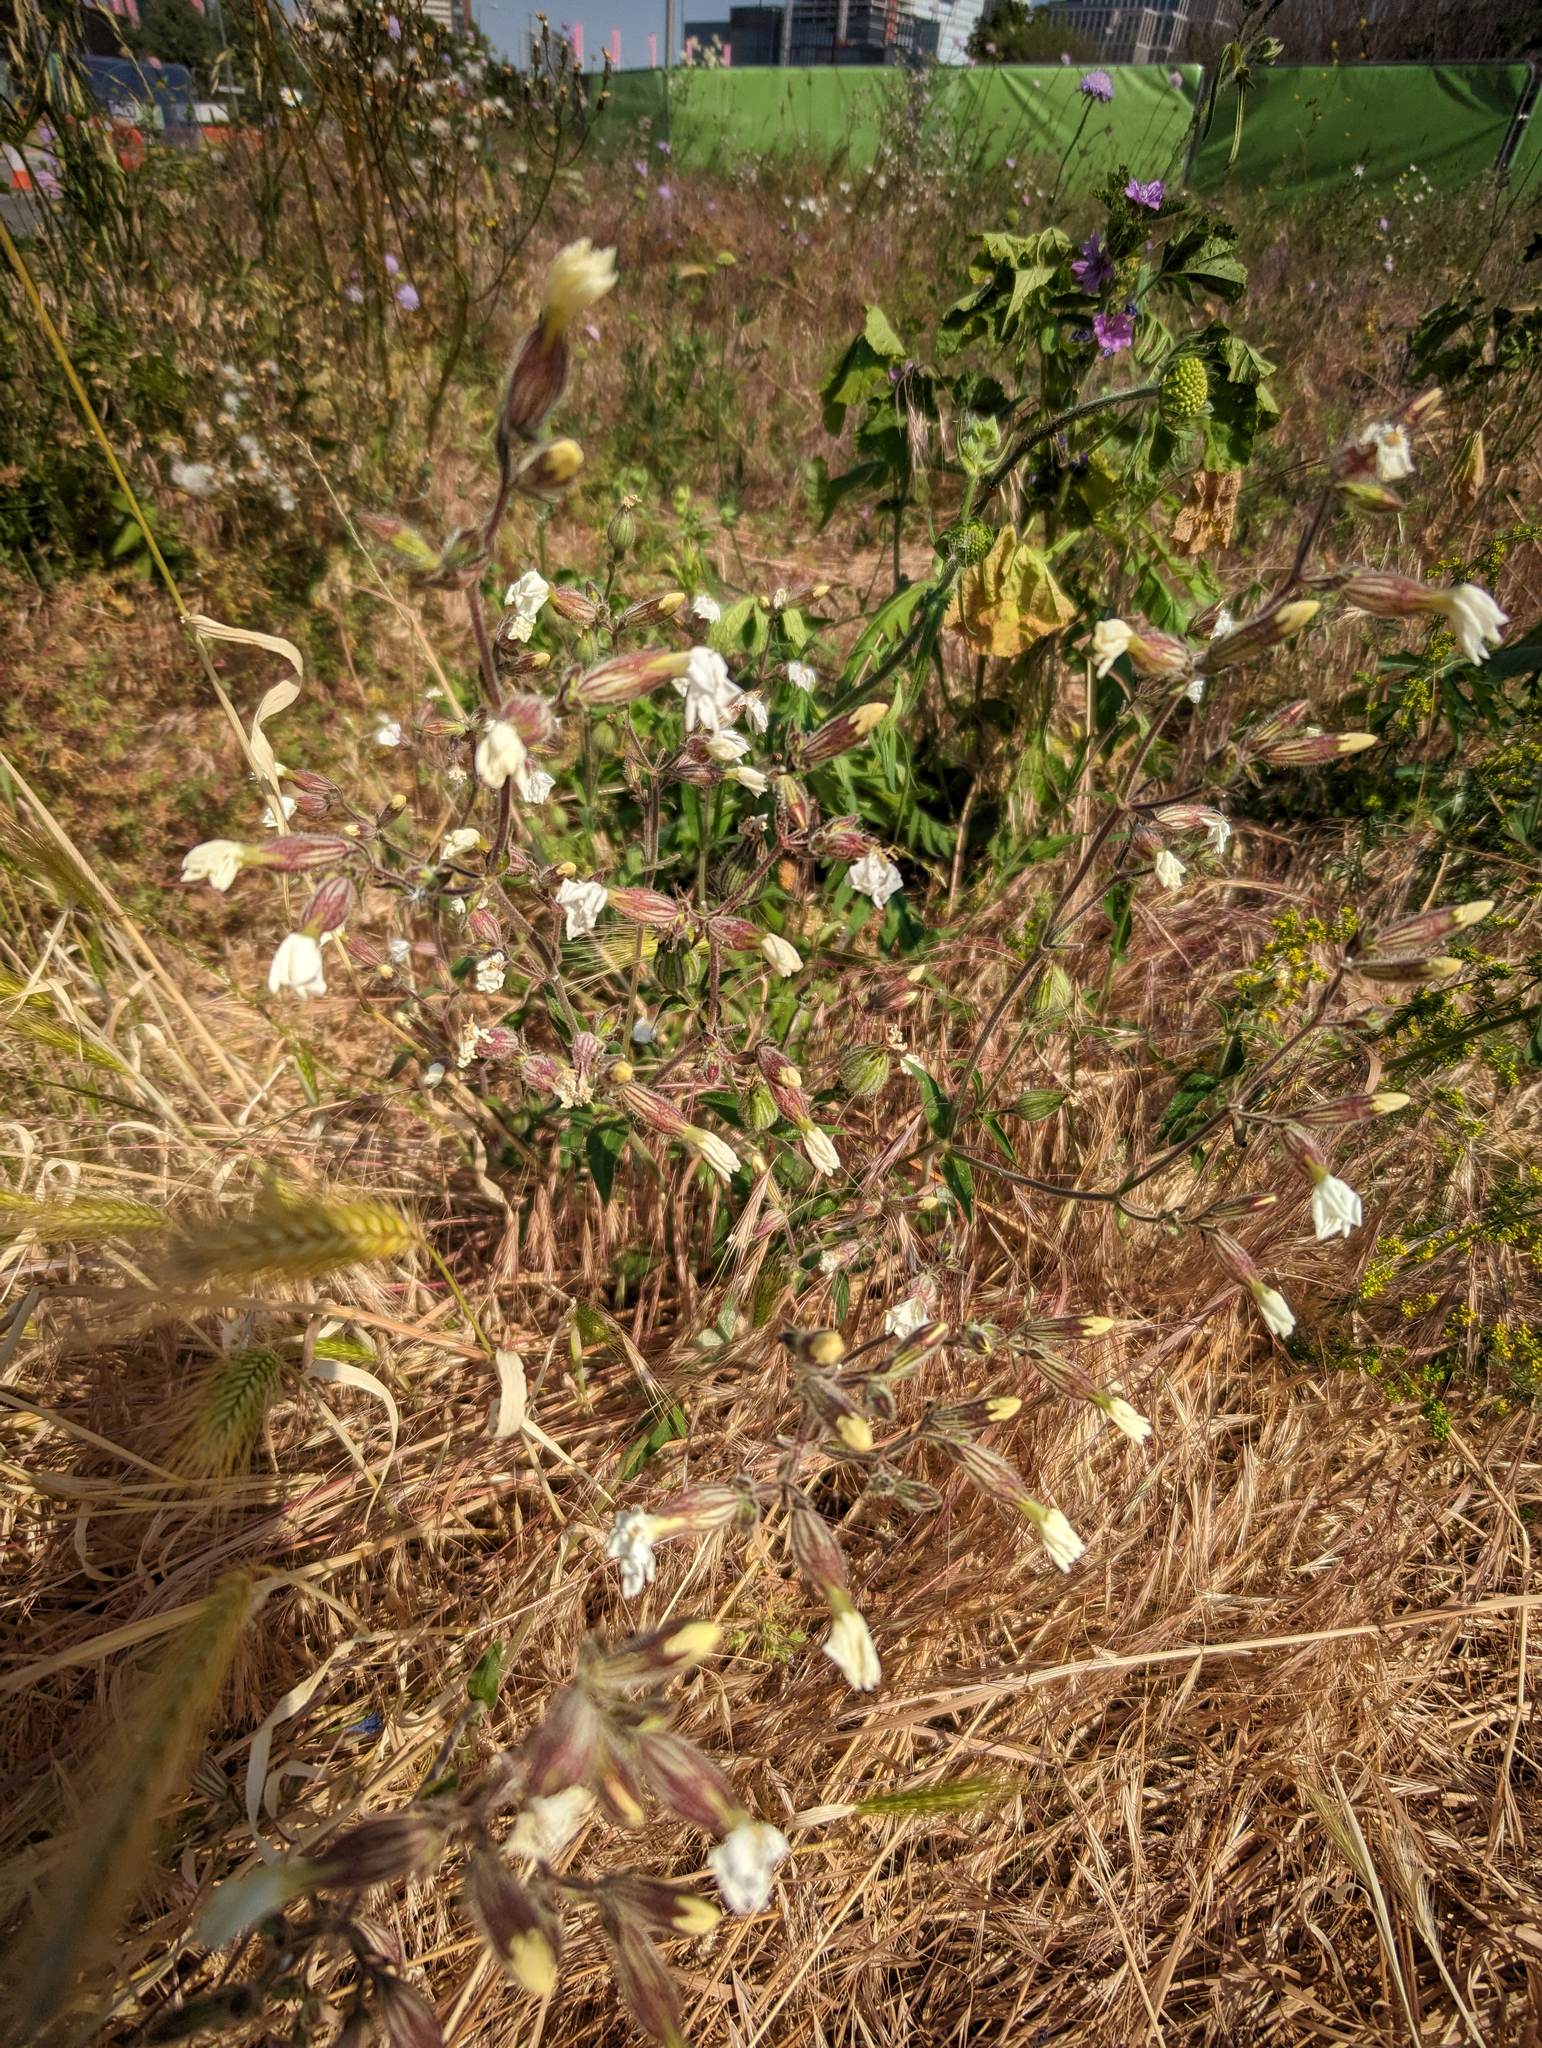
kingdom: Plantae
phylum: Tracheophyta
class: Magnoliopsida
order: Caryophyllales
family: Caryophyllaceae
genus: Silene
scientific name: Silene latifolia
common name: White campion
